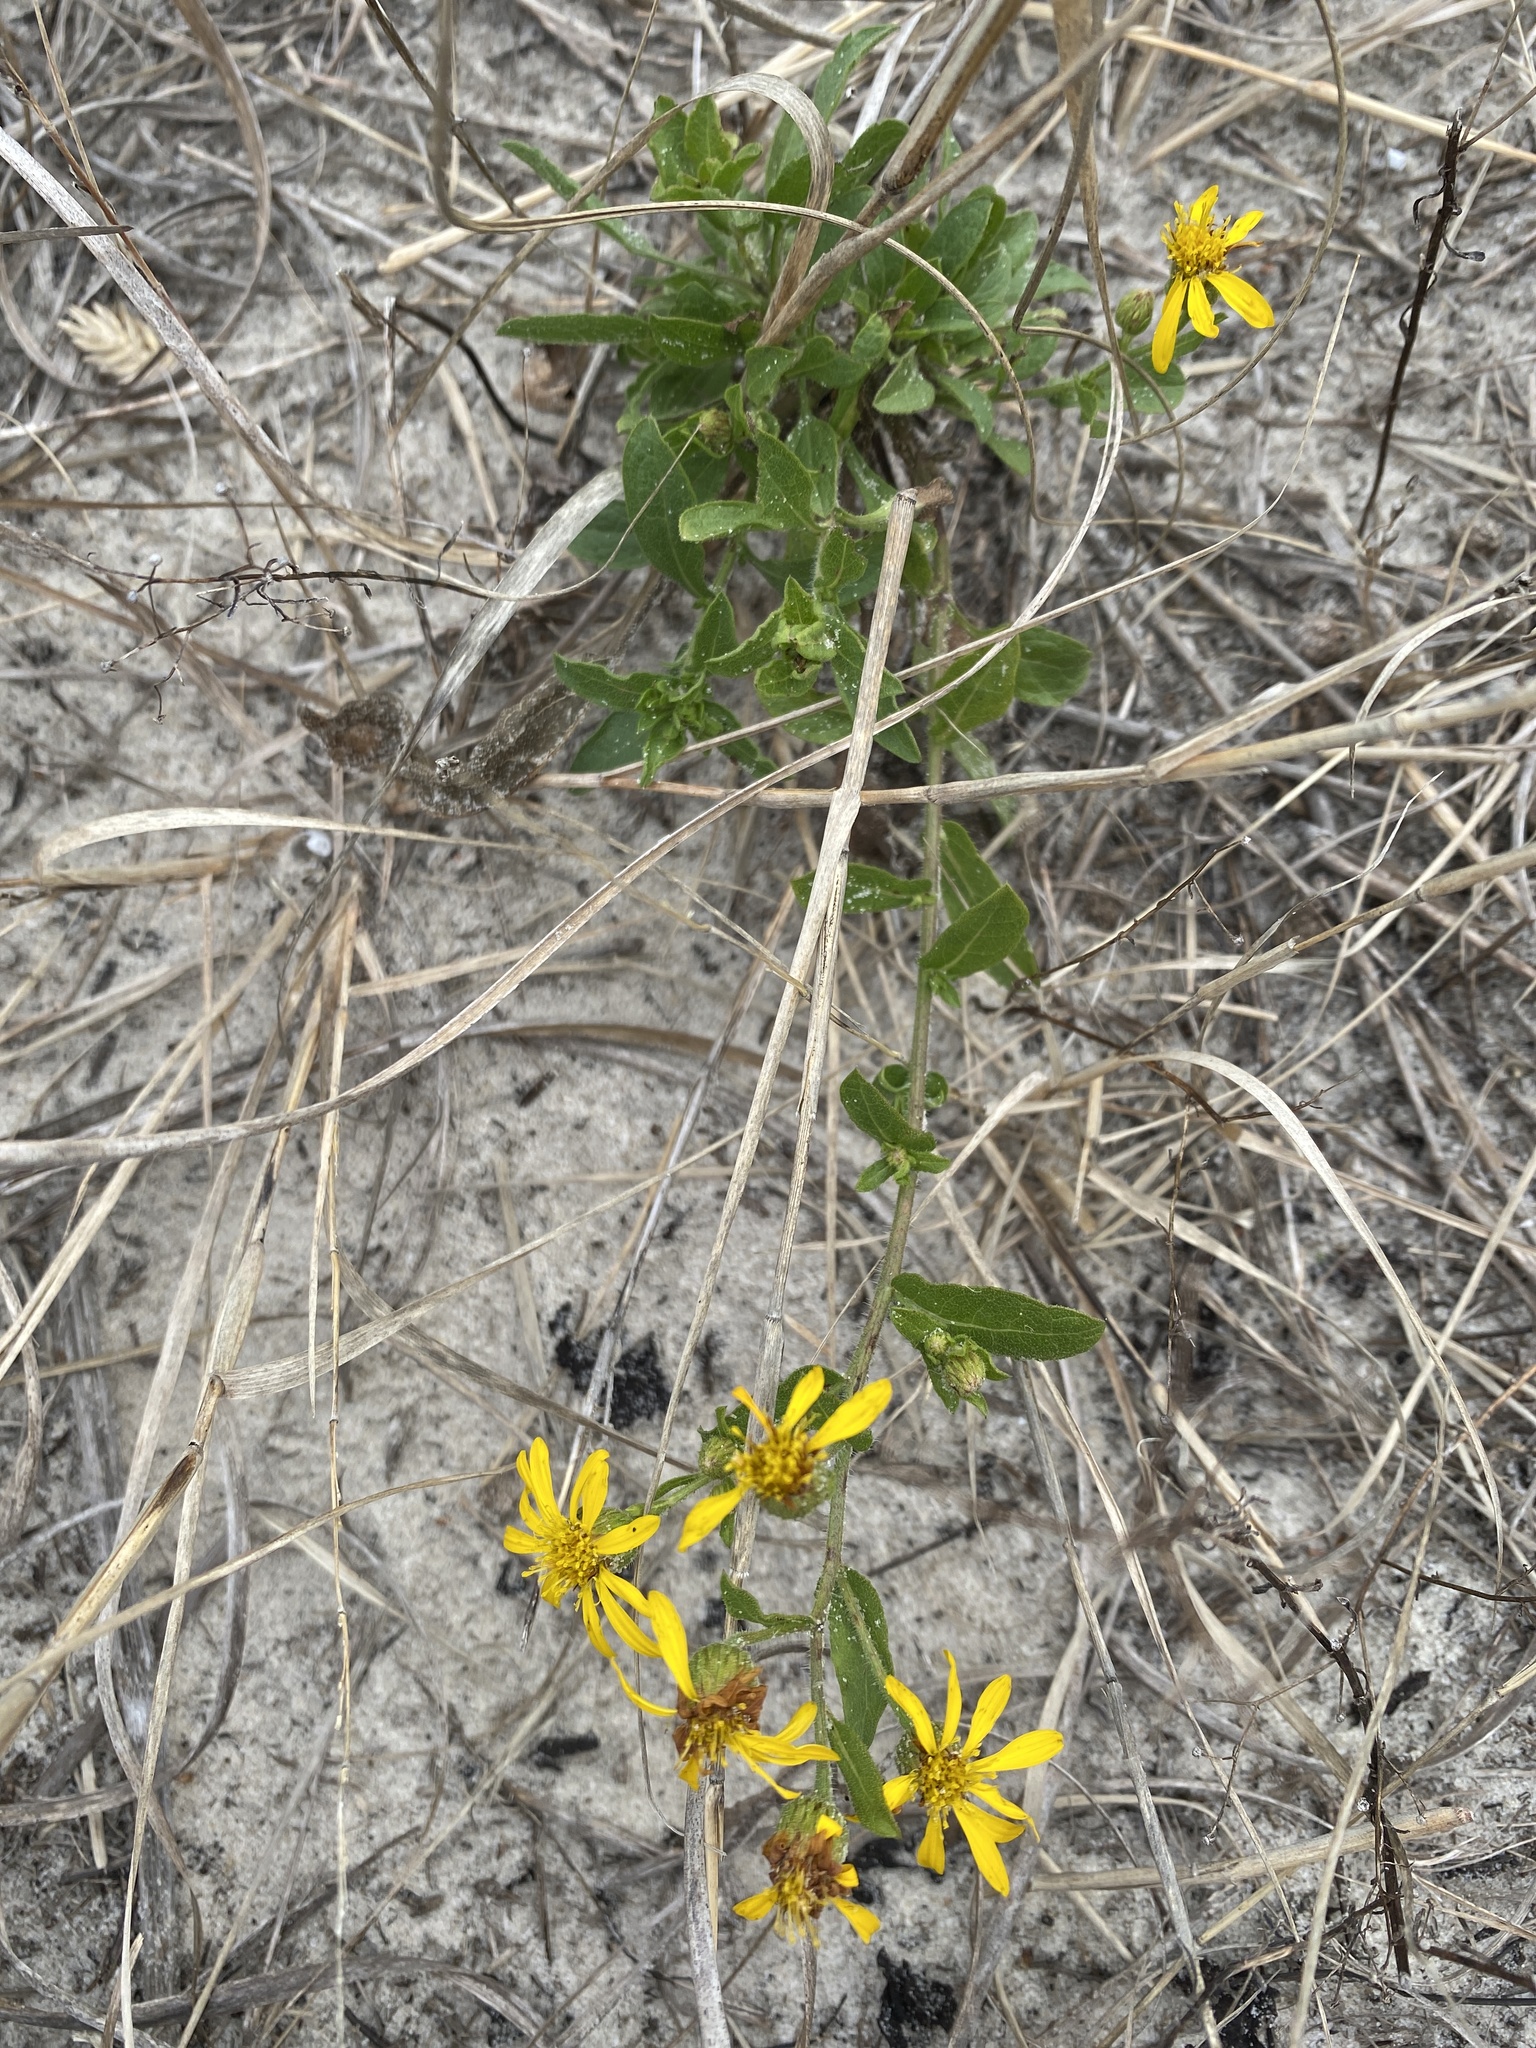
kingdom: Plantae
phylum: Tracheophyta
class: Magnoliopsida
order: Asterales
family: Asteraceae
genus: Heterotheca
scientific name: Heterotheca subaxillaris
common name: Camphorweed
